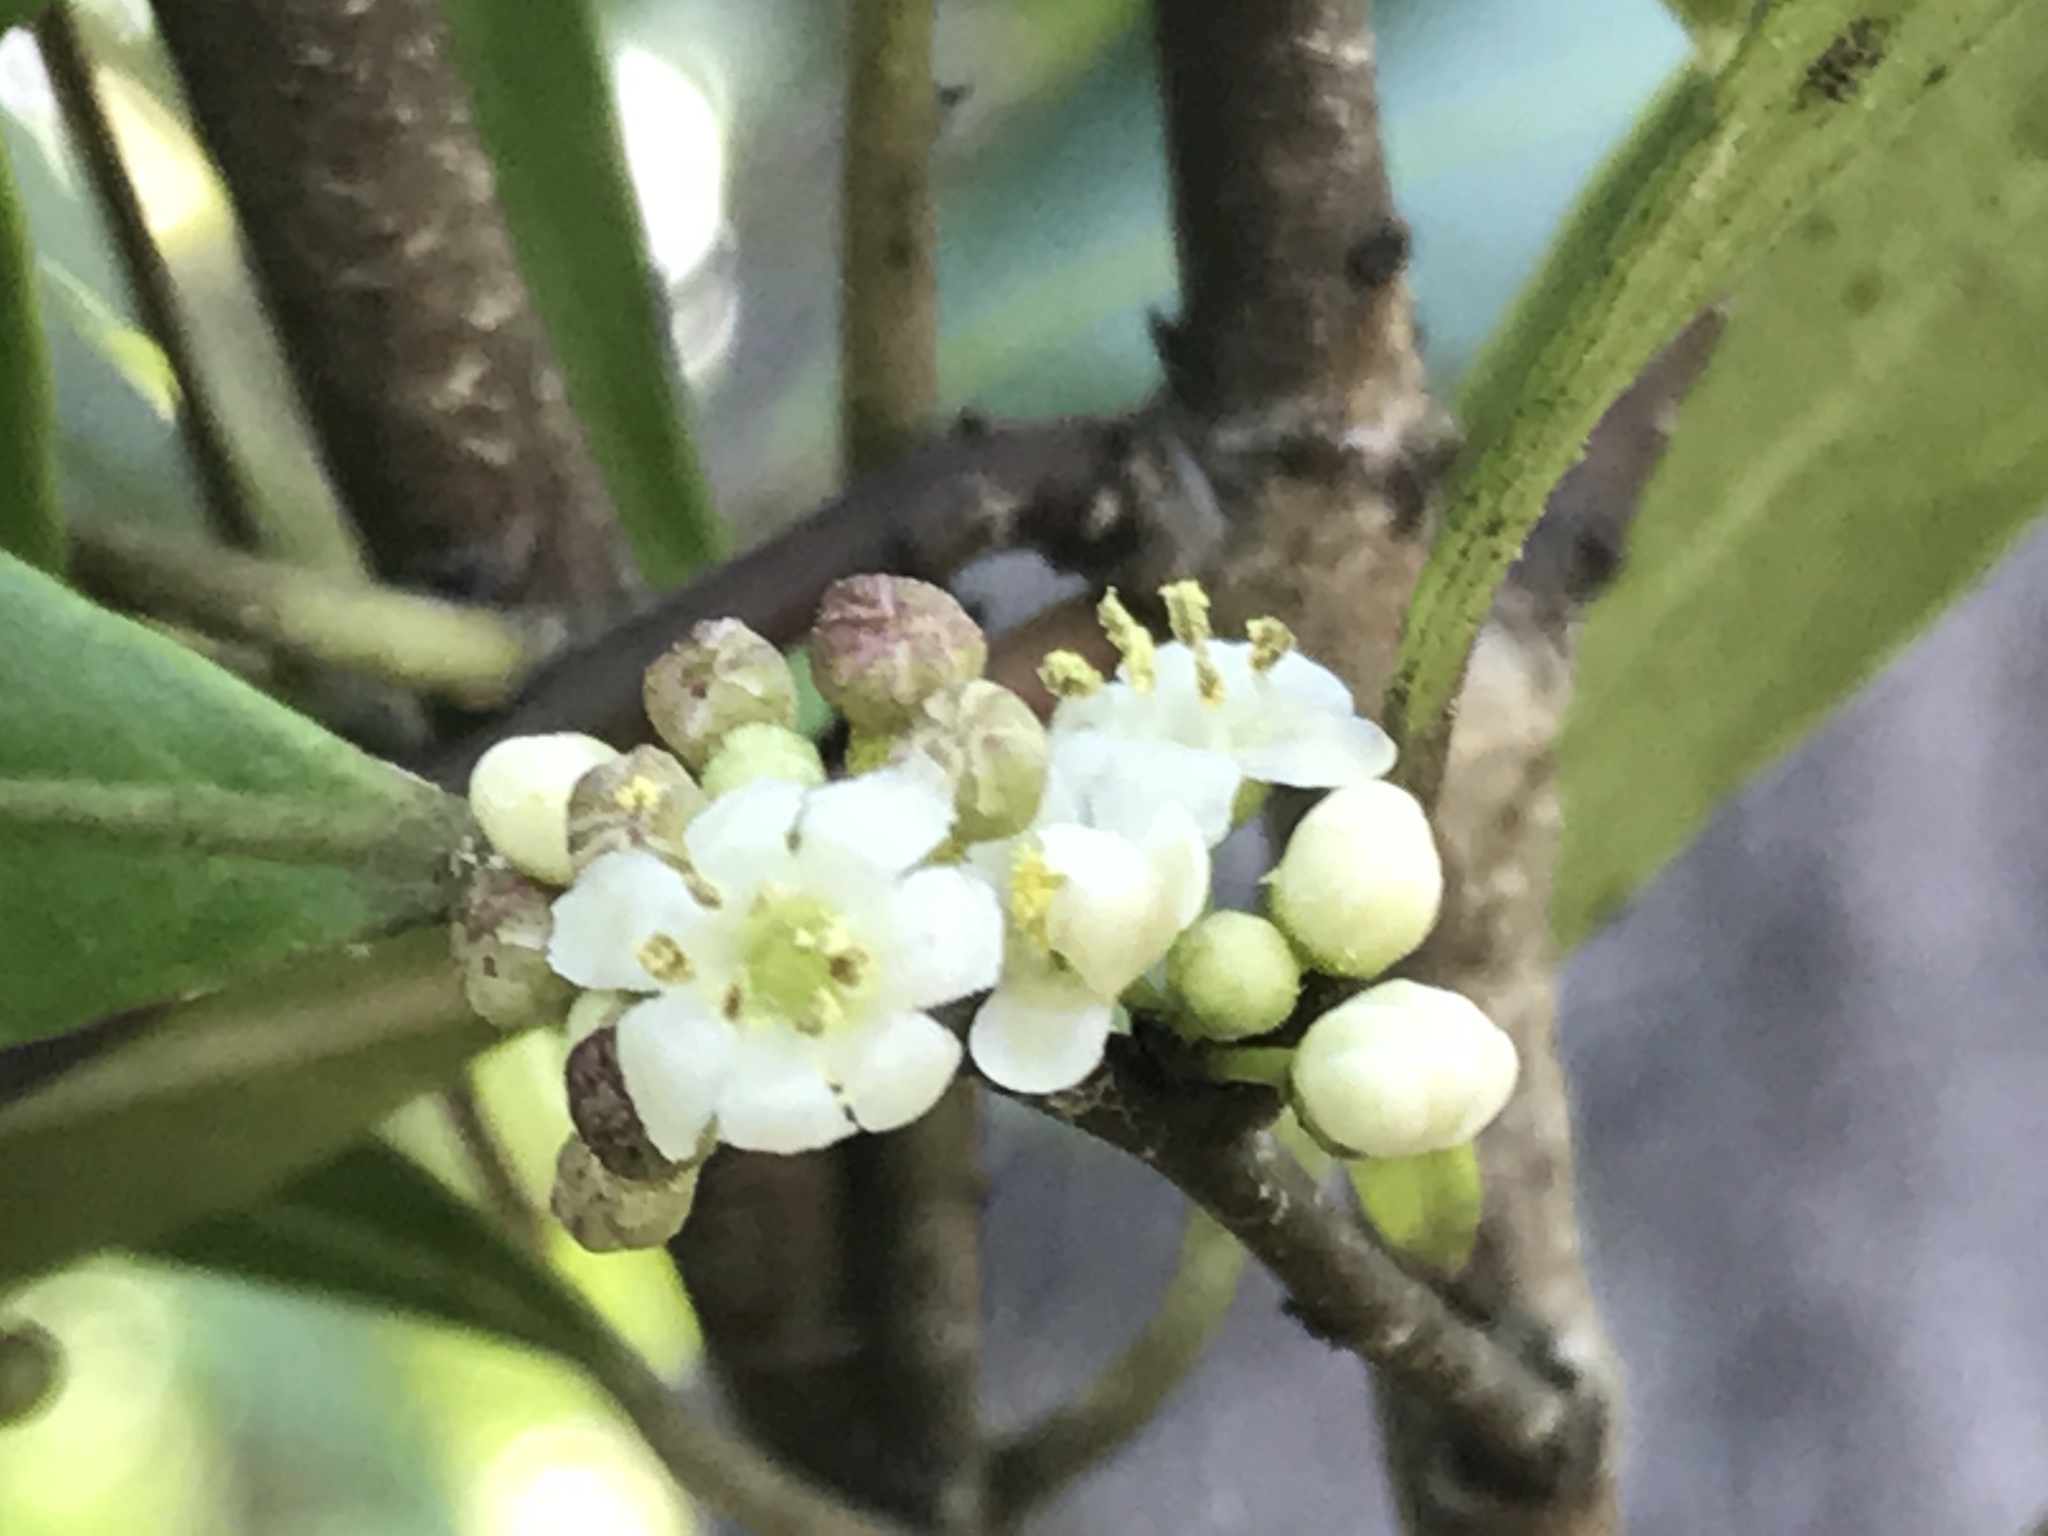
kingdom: Plantae
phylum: Tracheophyta
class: Magnoliopsida
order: Aquifoliales
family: Aquifoliaceae
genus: Ilex
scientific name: Ilex coriacea
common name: Sweet gallberry
